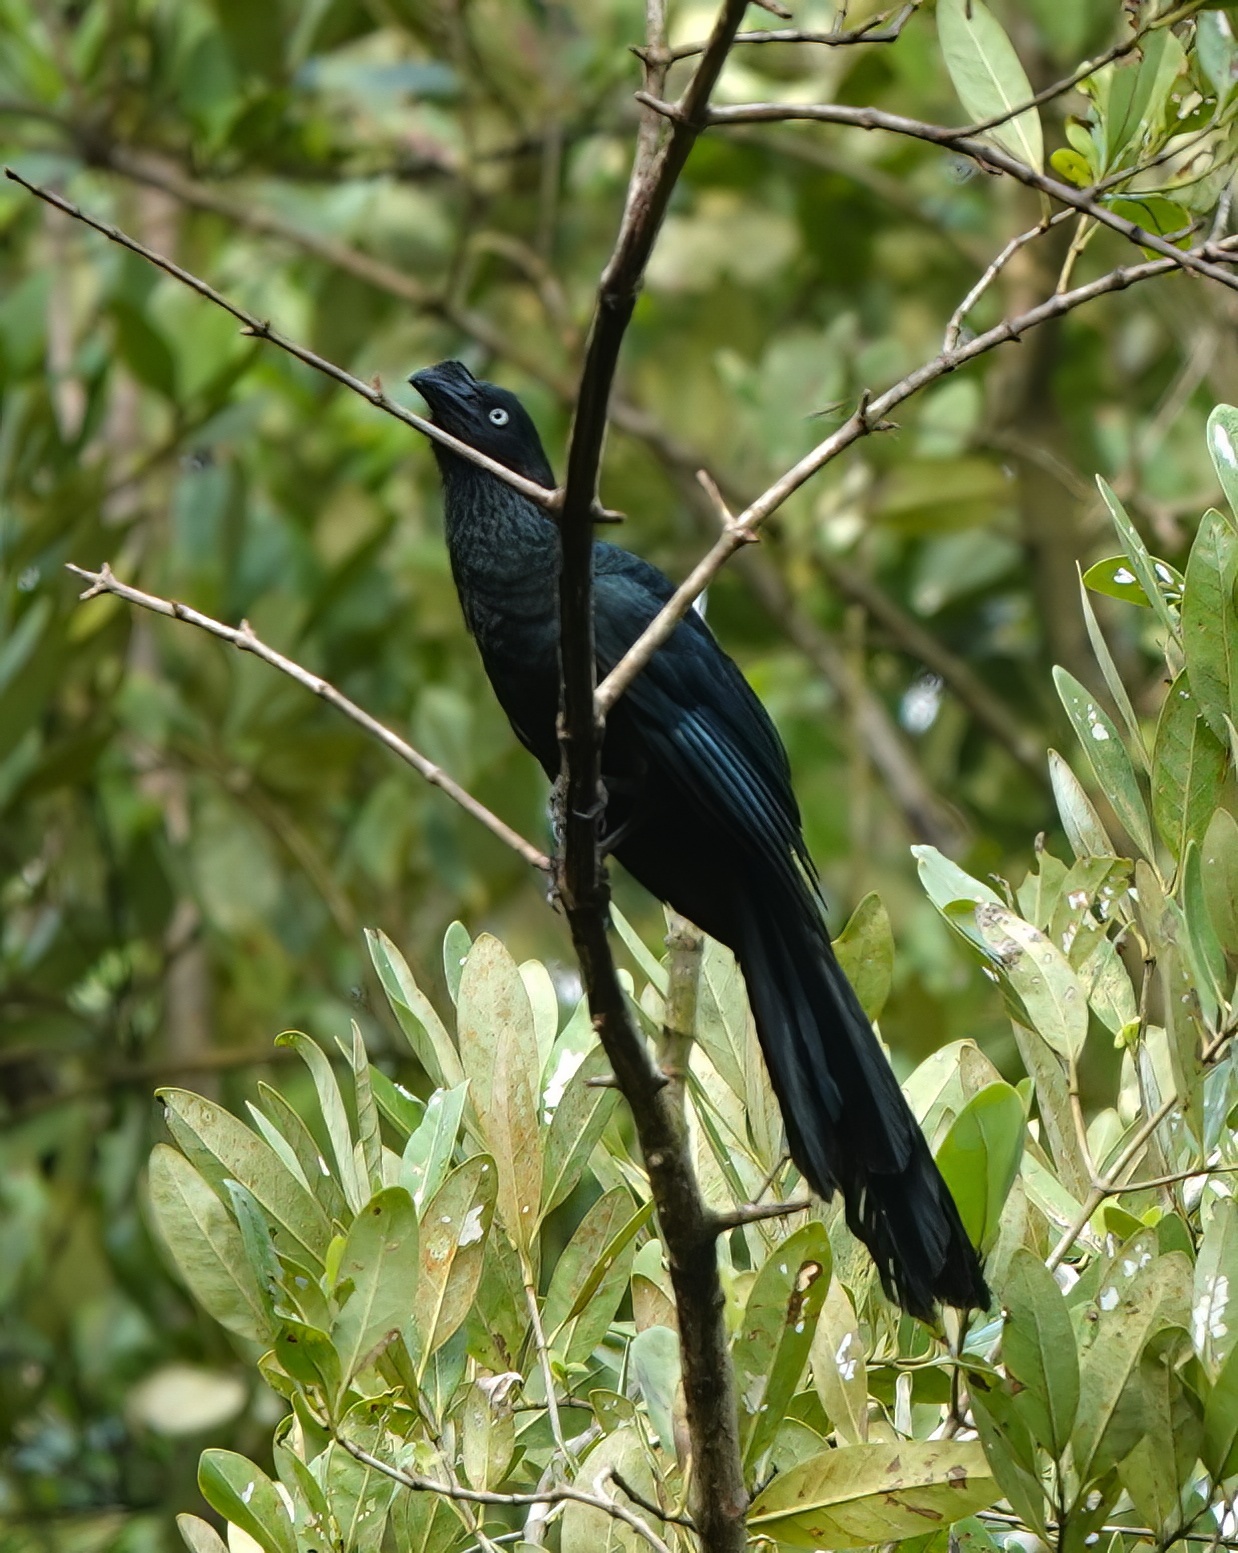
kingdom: Animalia
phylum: Chordata
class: Aves
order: Cuculiformes
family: Cuculidae
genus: Crotophaga
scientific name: Crotophaga major
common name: Greater ani
